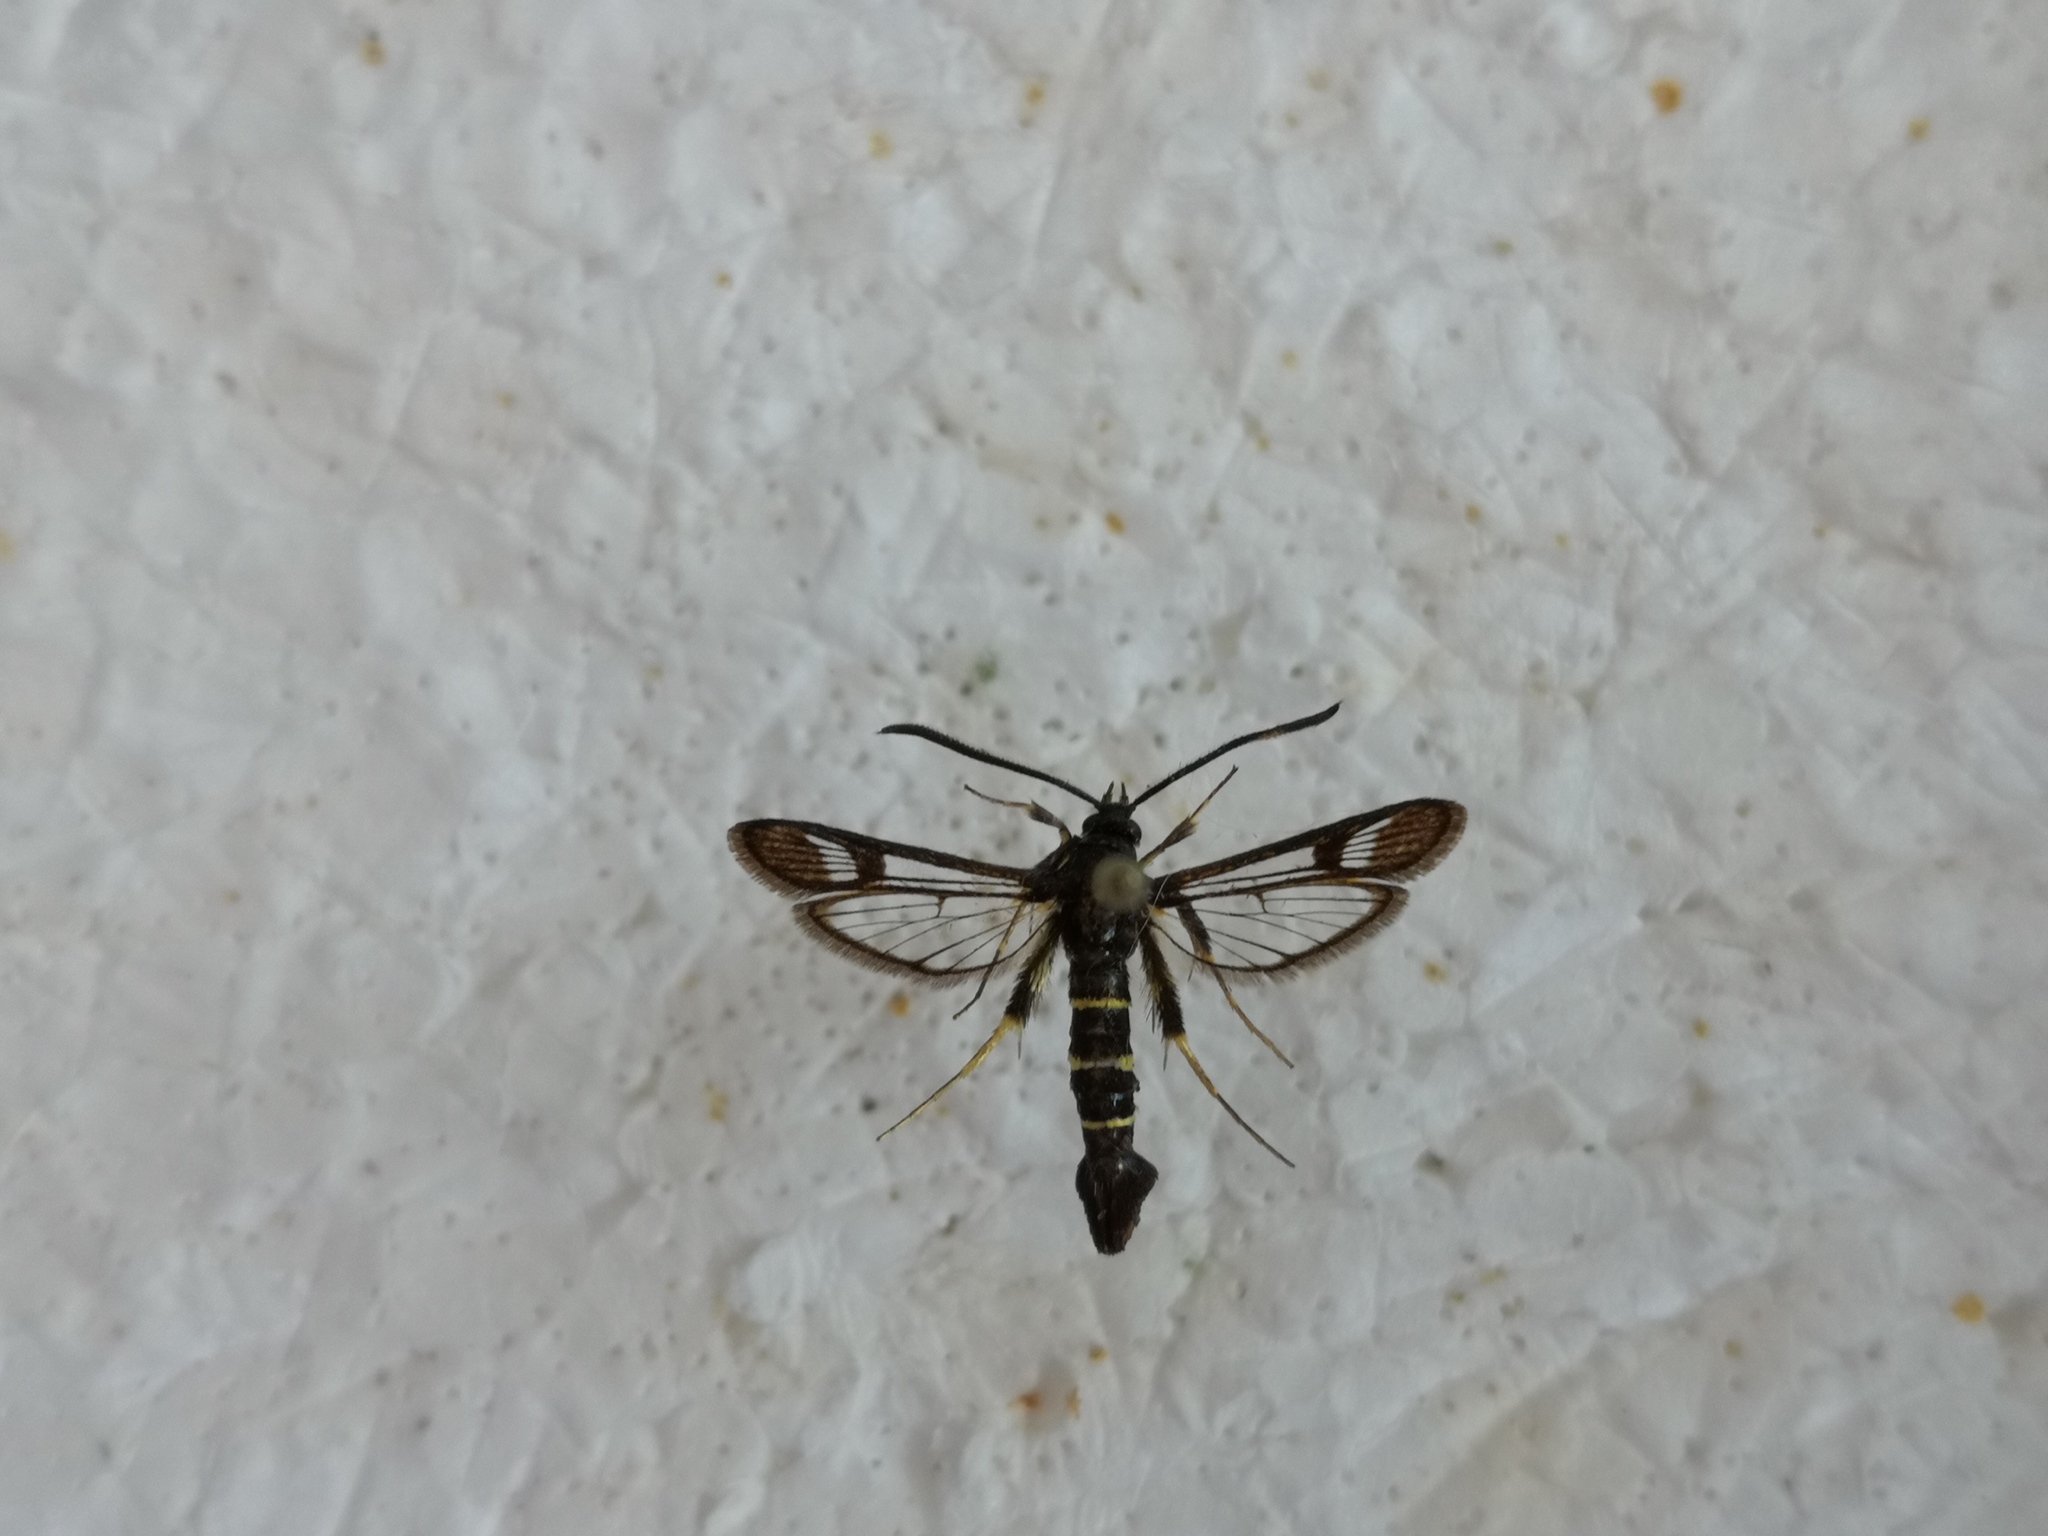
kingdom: Animalia
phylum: Arthropoda
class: Insecta
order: Lepidoptera
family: Sesiidae
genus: Synanthedon
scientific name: Synanthedon flaviventris
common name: Sallow clearwing
